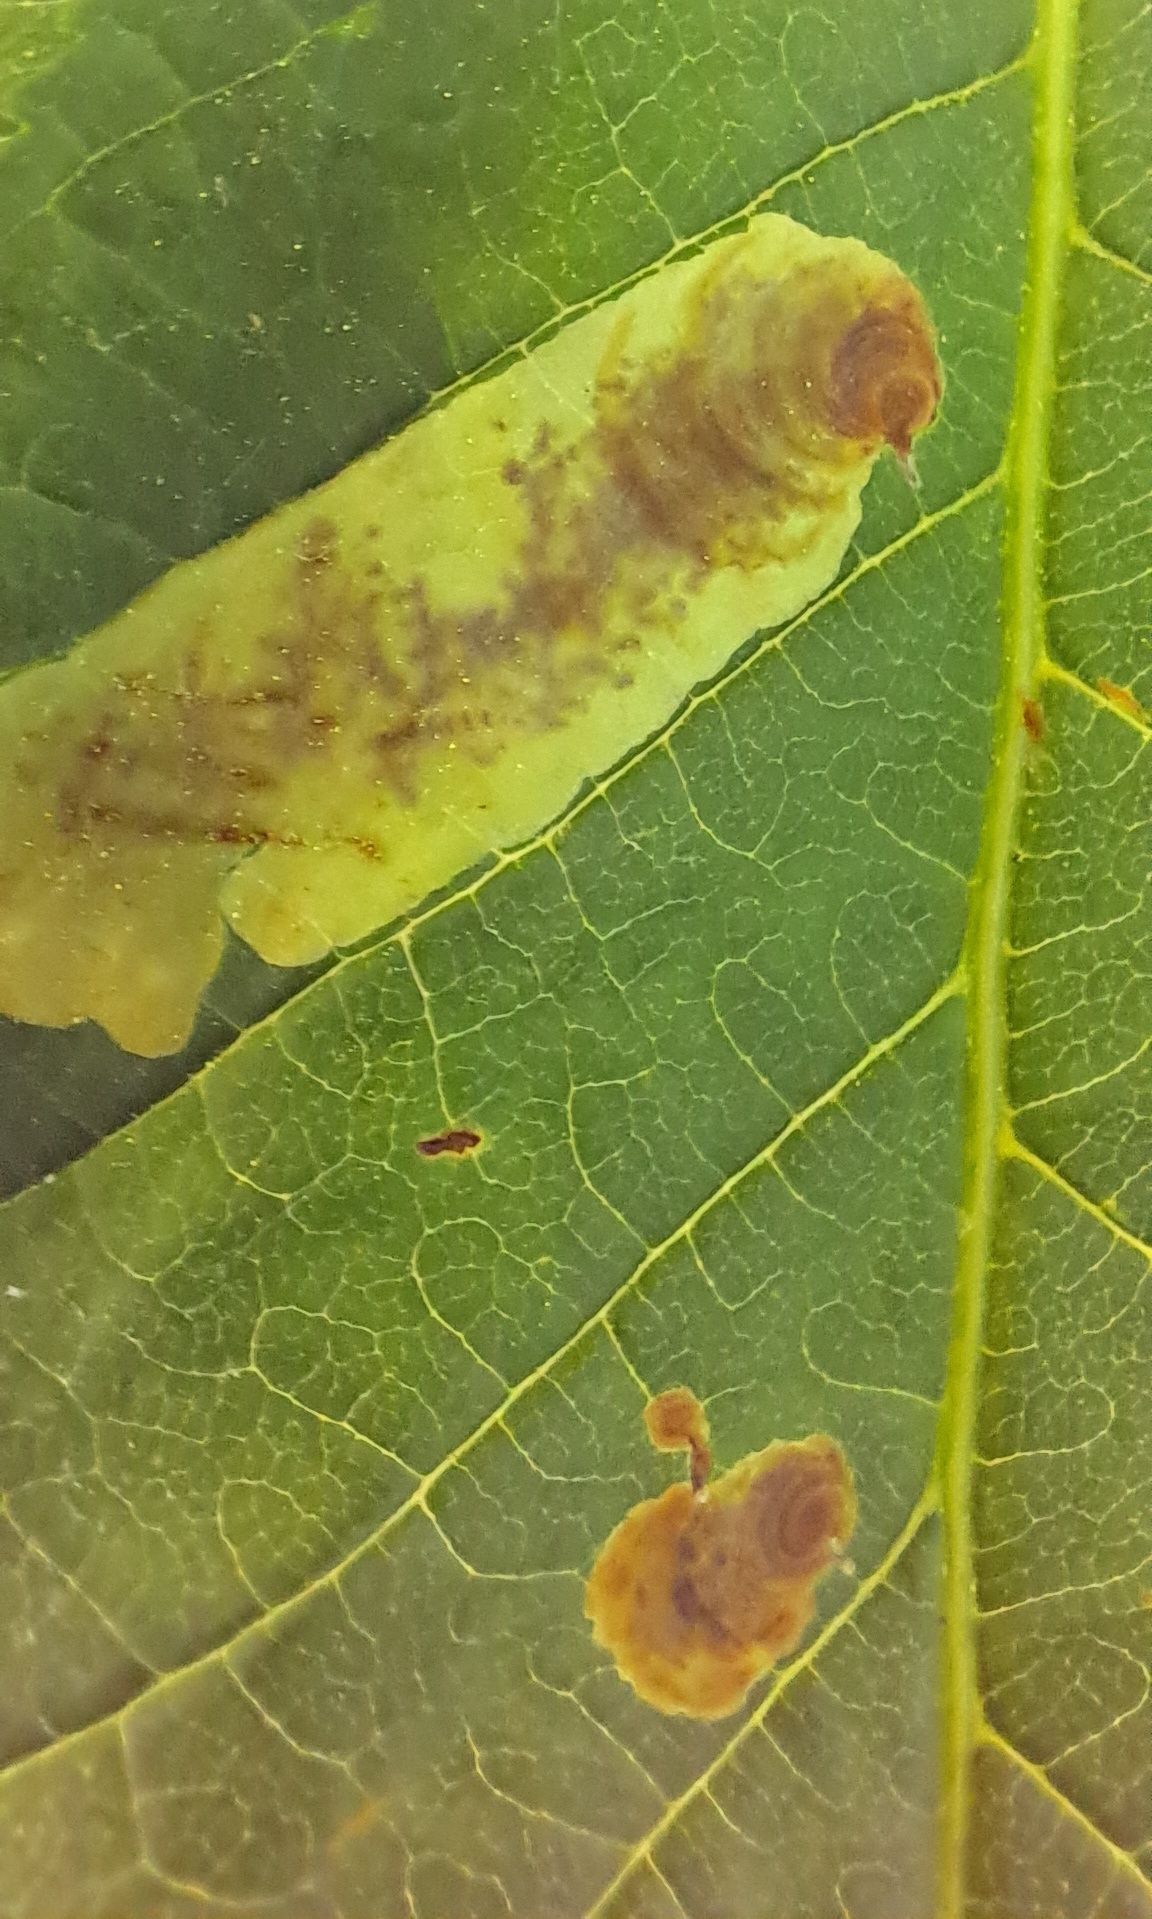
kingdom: Animalia
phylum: Arthropoda
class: Insecta
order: Lepidoptera
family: Gracillariidae
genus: Cameraria
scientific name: Cameraria ohridella
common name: Horse-chestnut leaf-miner
